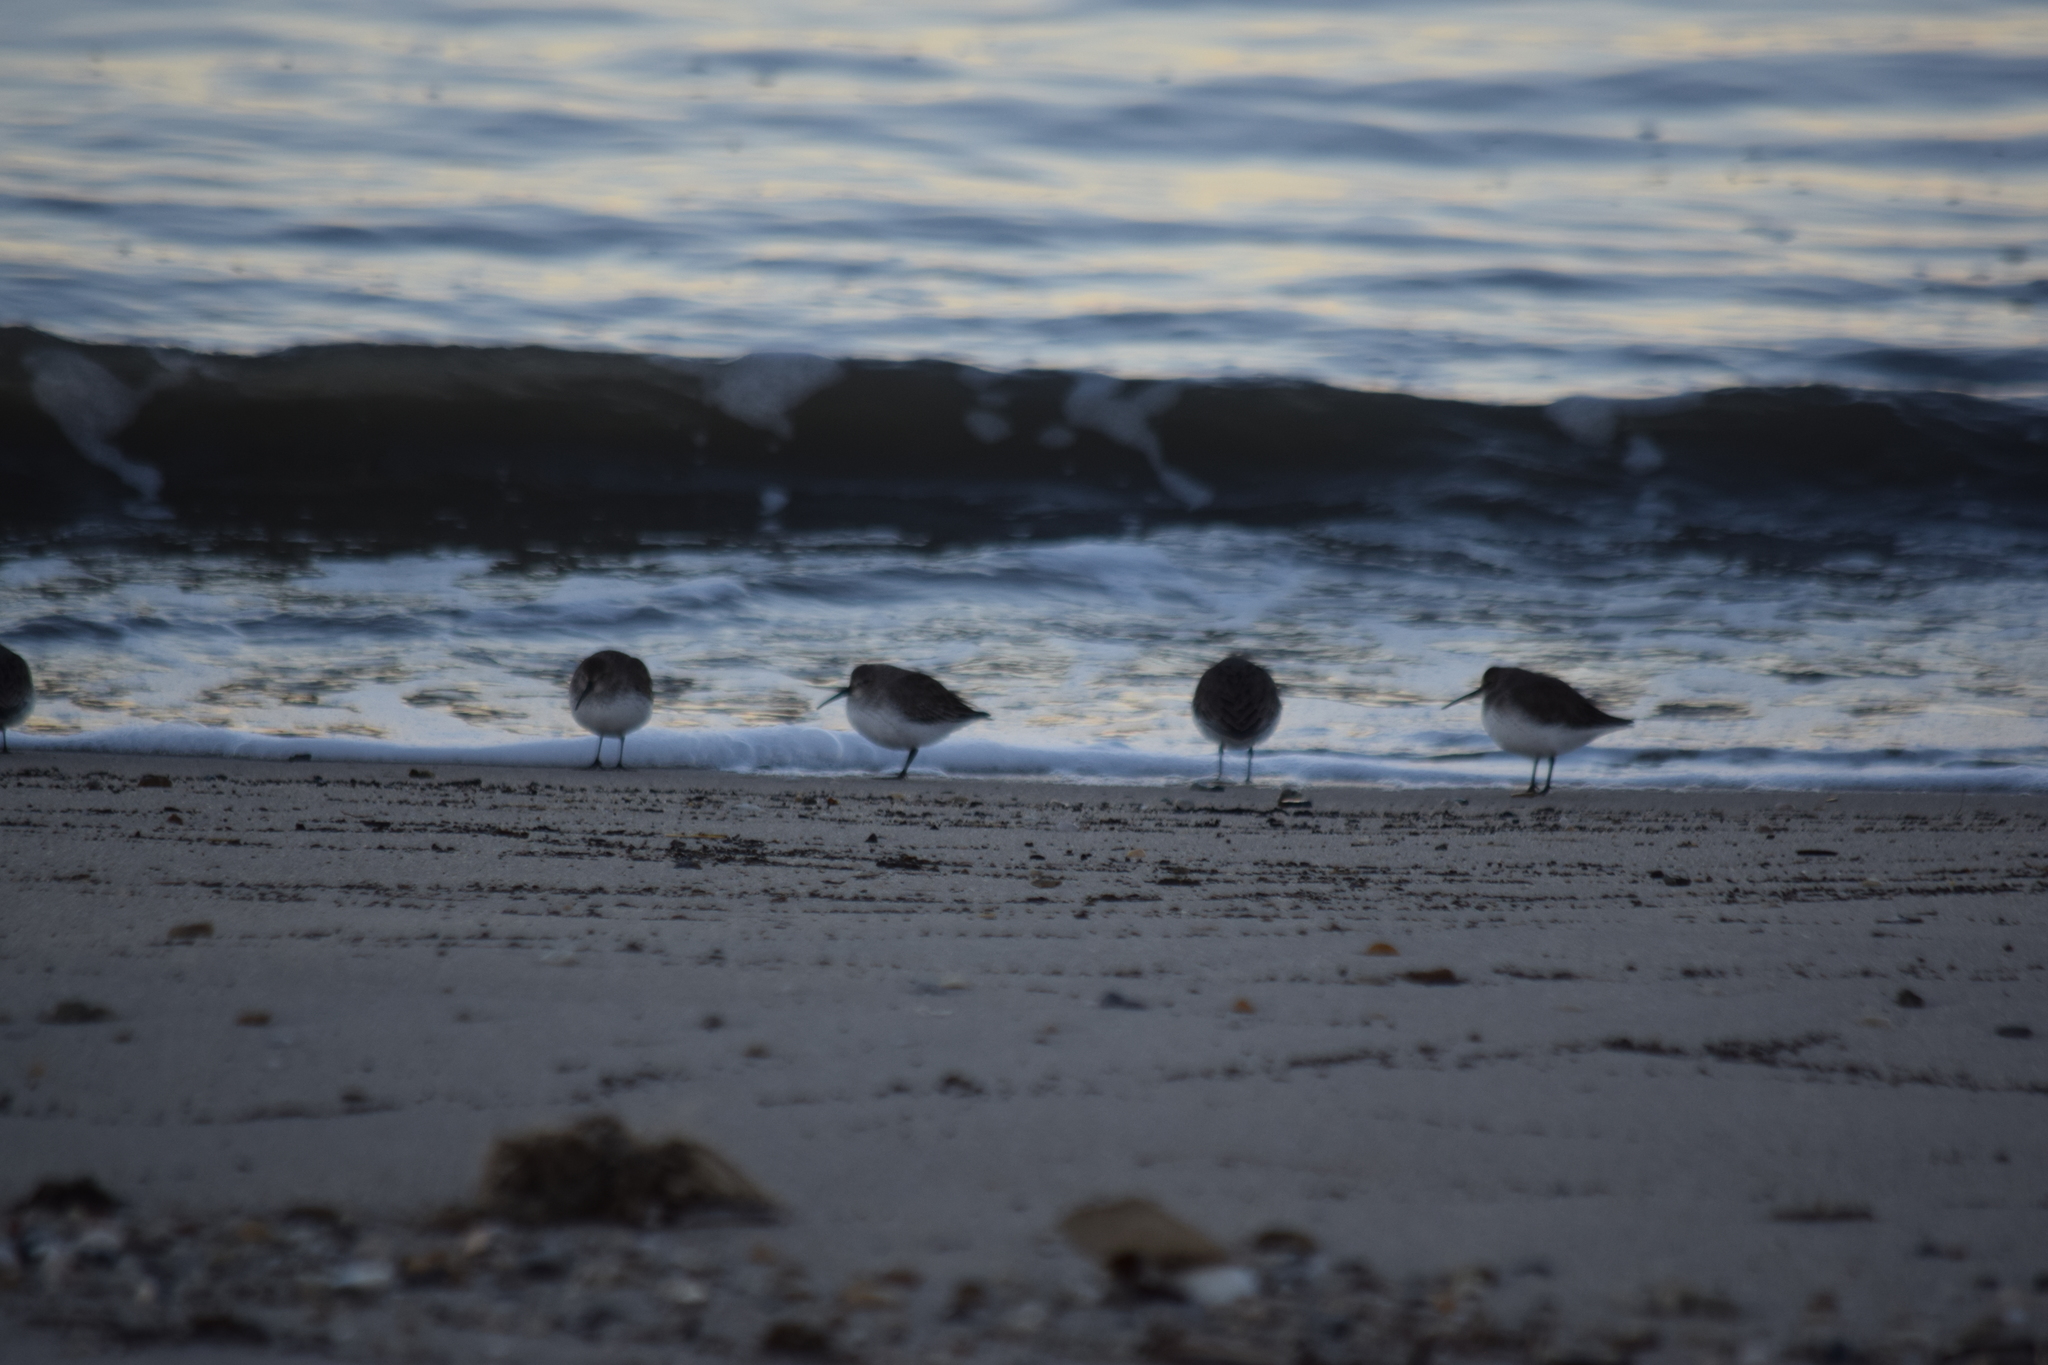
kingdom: Animalia
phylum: Chordata
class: Aves
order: Charadriiformes
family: Scolopacidae
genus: Calidris
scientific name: Calidris alpina
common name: Dunlin
